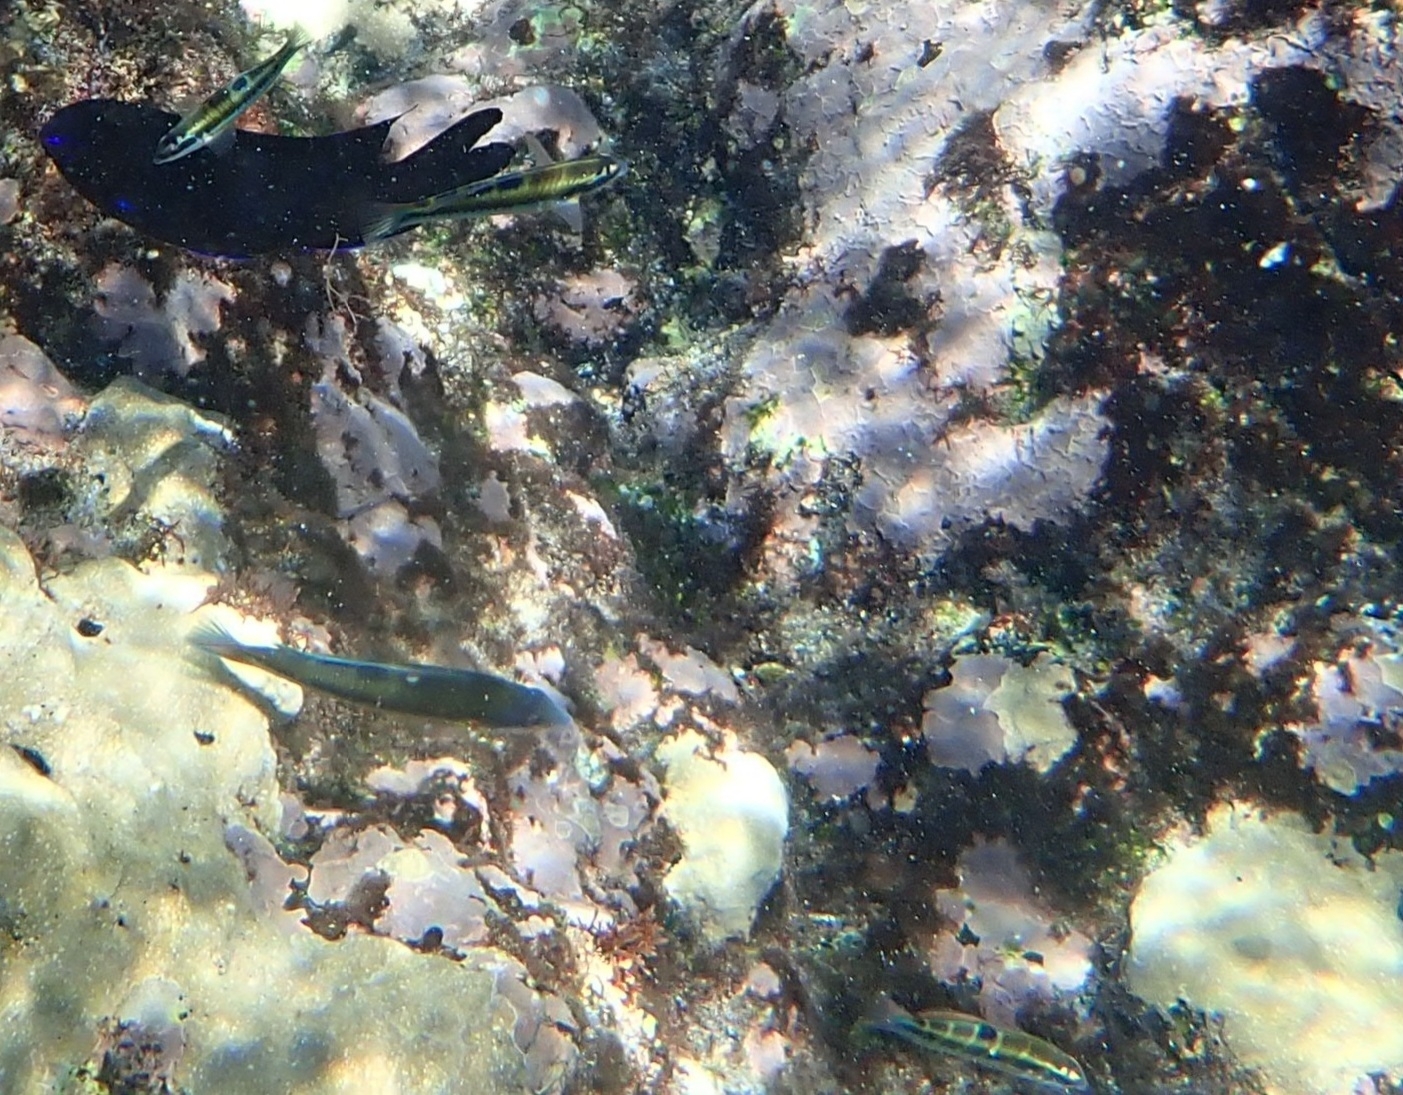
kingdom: Animalia
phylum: Chordata
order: Perciformes
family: Labridae
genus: Thalassoma
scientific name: Thalassoma pavo
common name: Ornate wrasse
